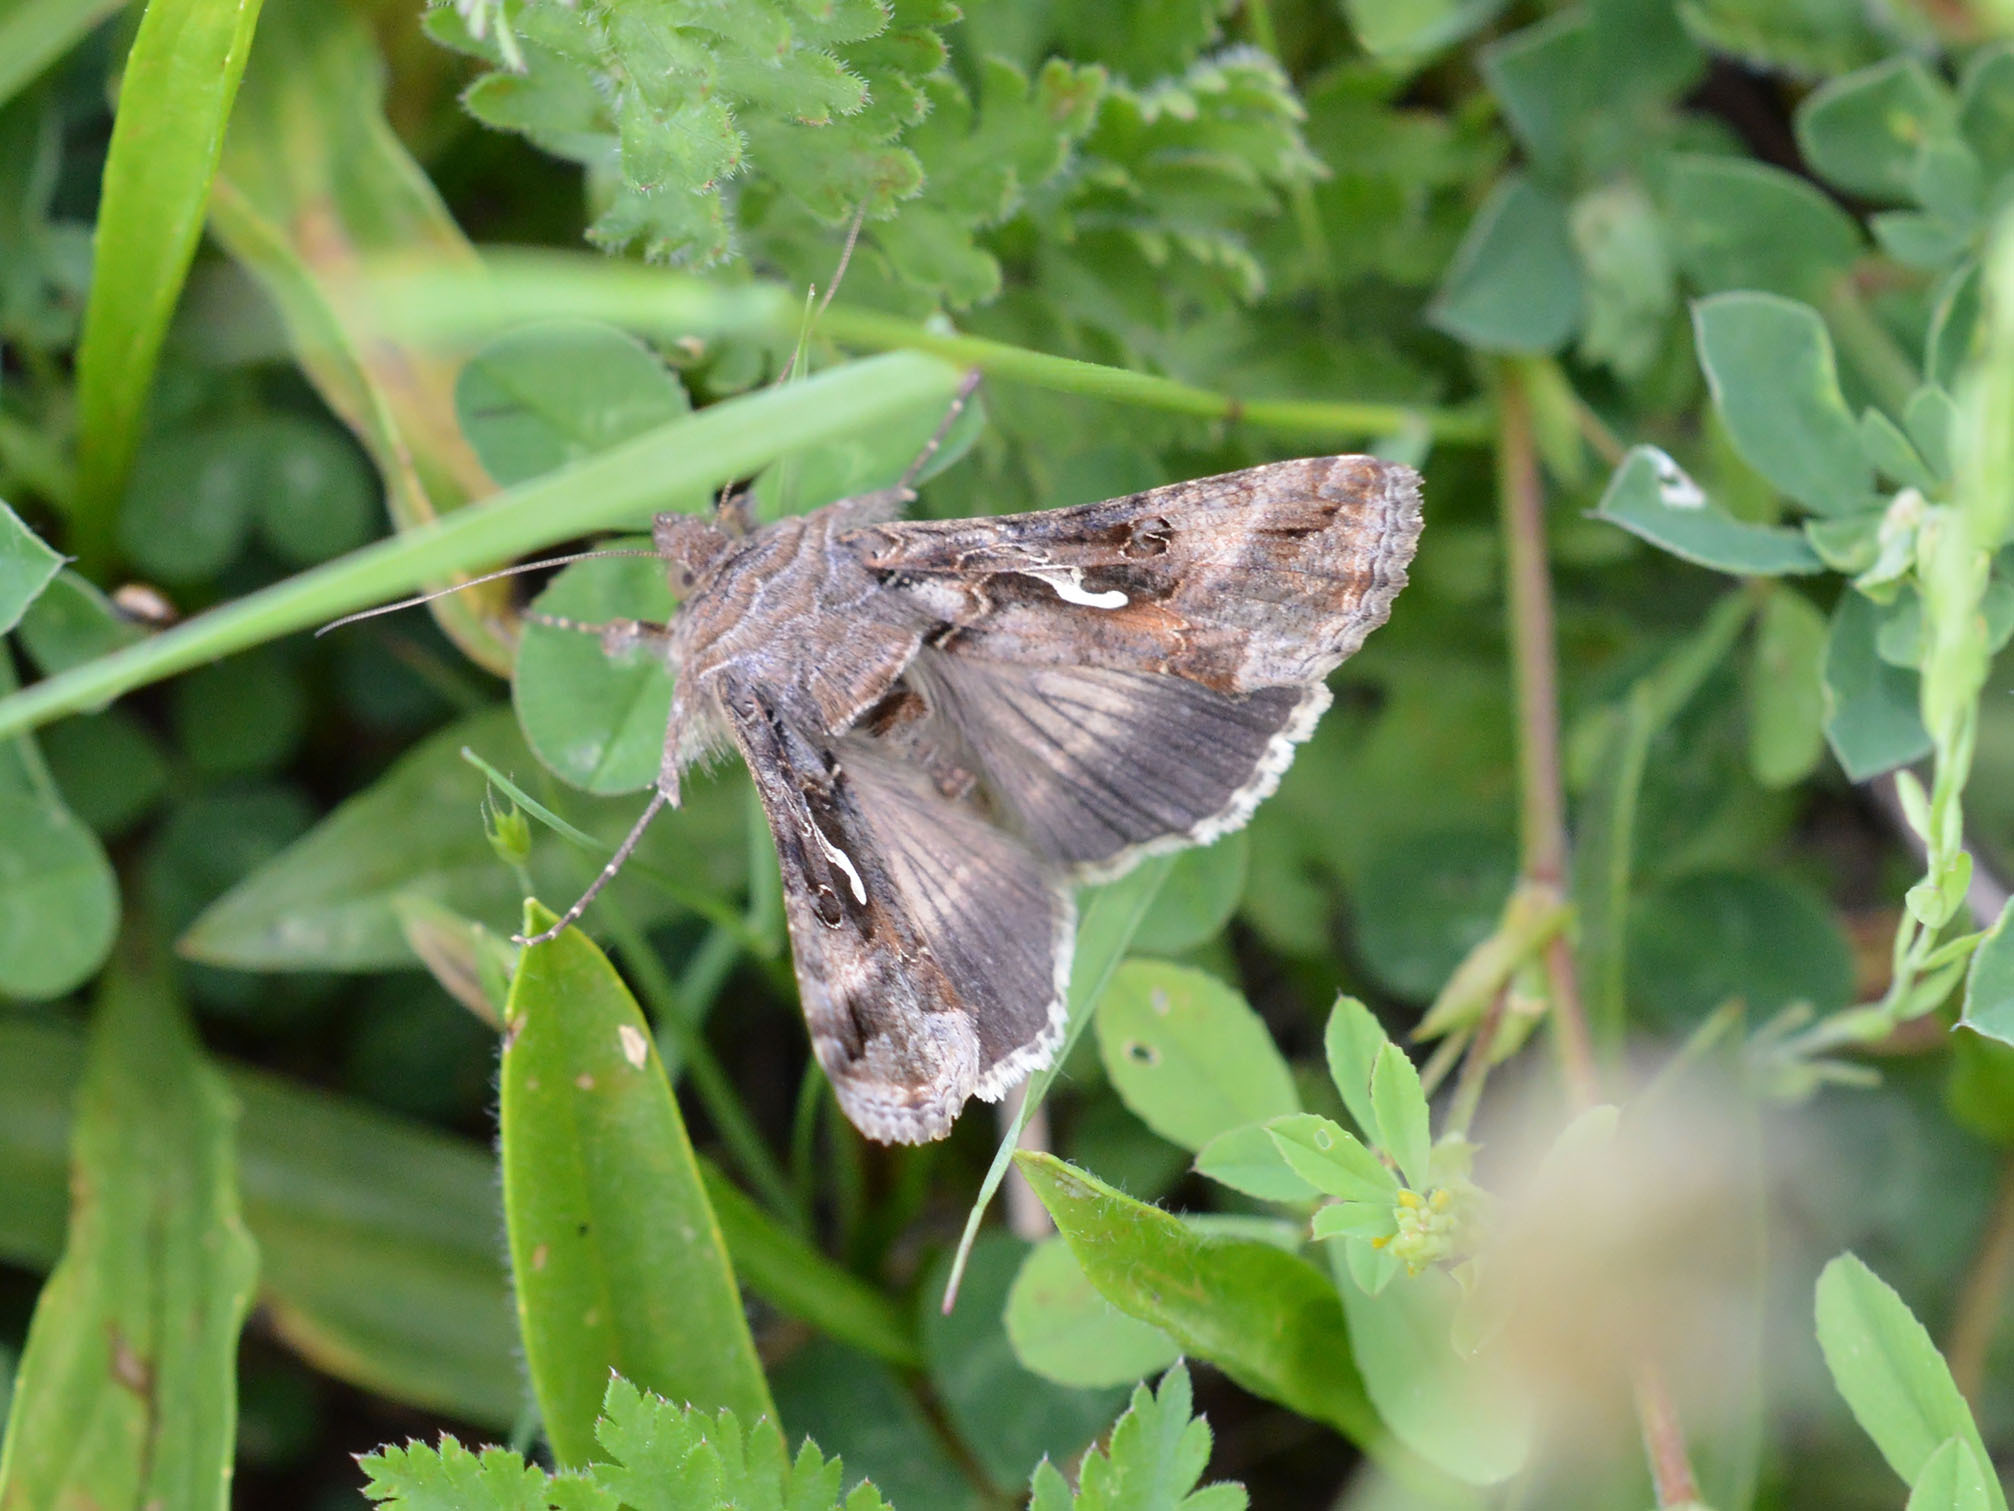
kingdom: Animalia
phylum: Arthropoda
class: Insecta
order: Lepidoptera
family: Noctuidae
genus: Autographa
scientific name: Autographa gamma
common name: Silver y
